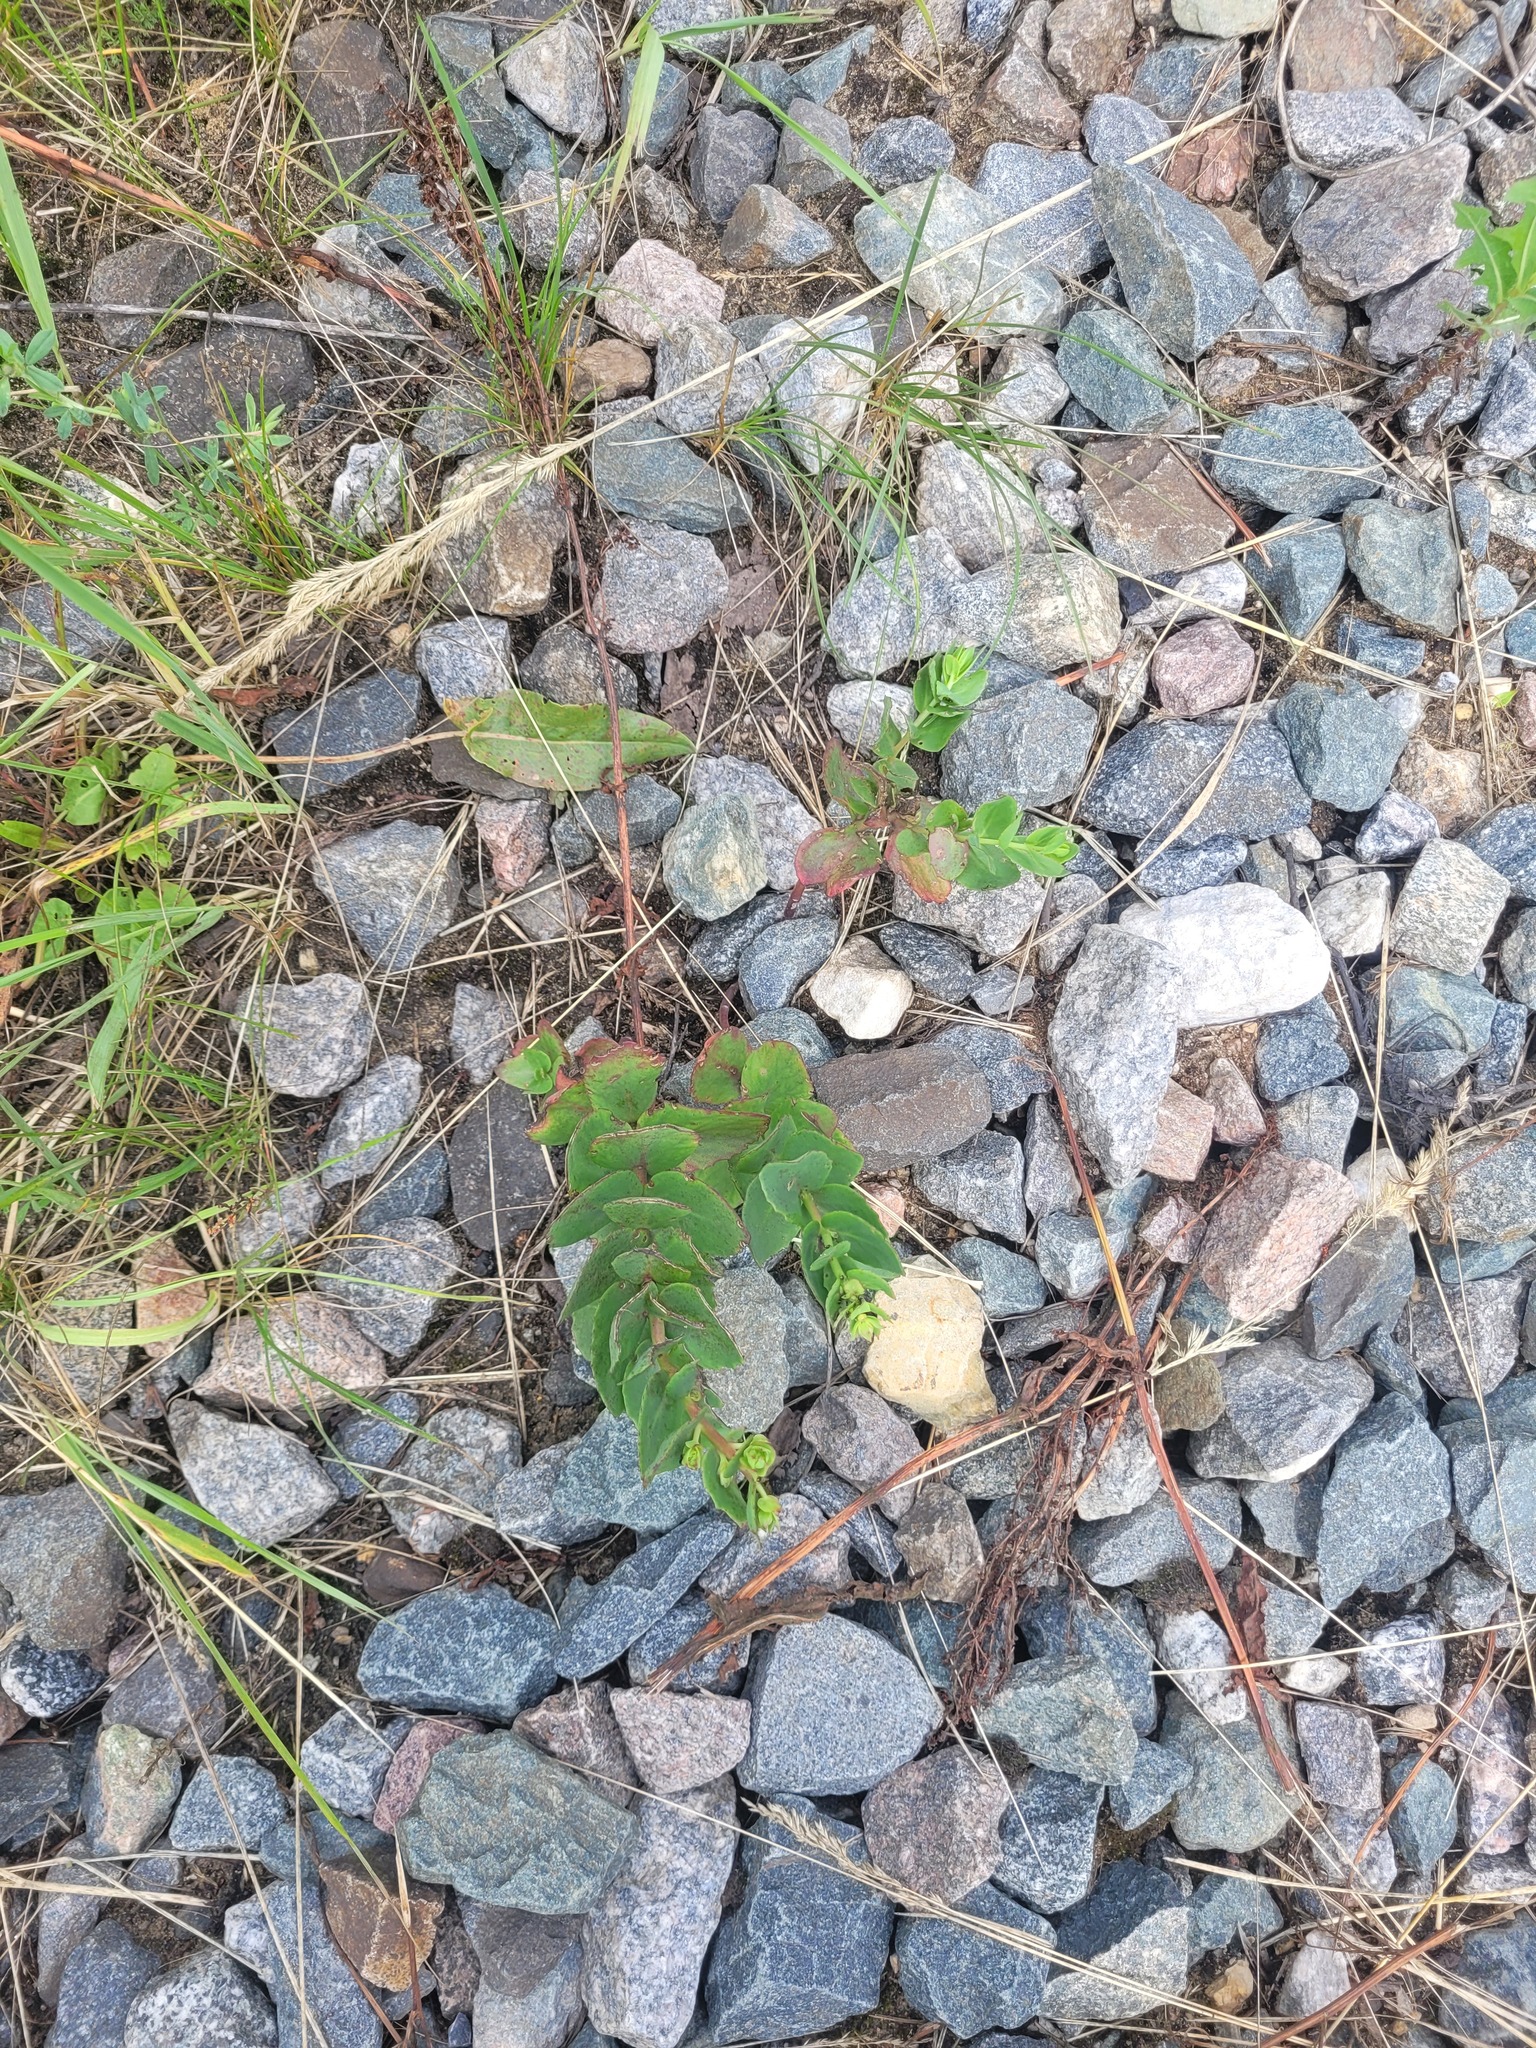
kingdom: Plantae
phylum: Tracheophyta
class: Magnoliopsida
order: Saxifragales
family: Crassulaceae
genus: Hylotelephium
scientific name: Hylotelephium maximum
